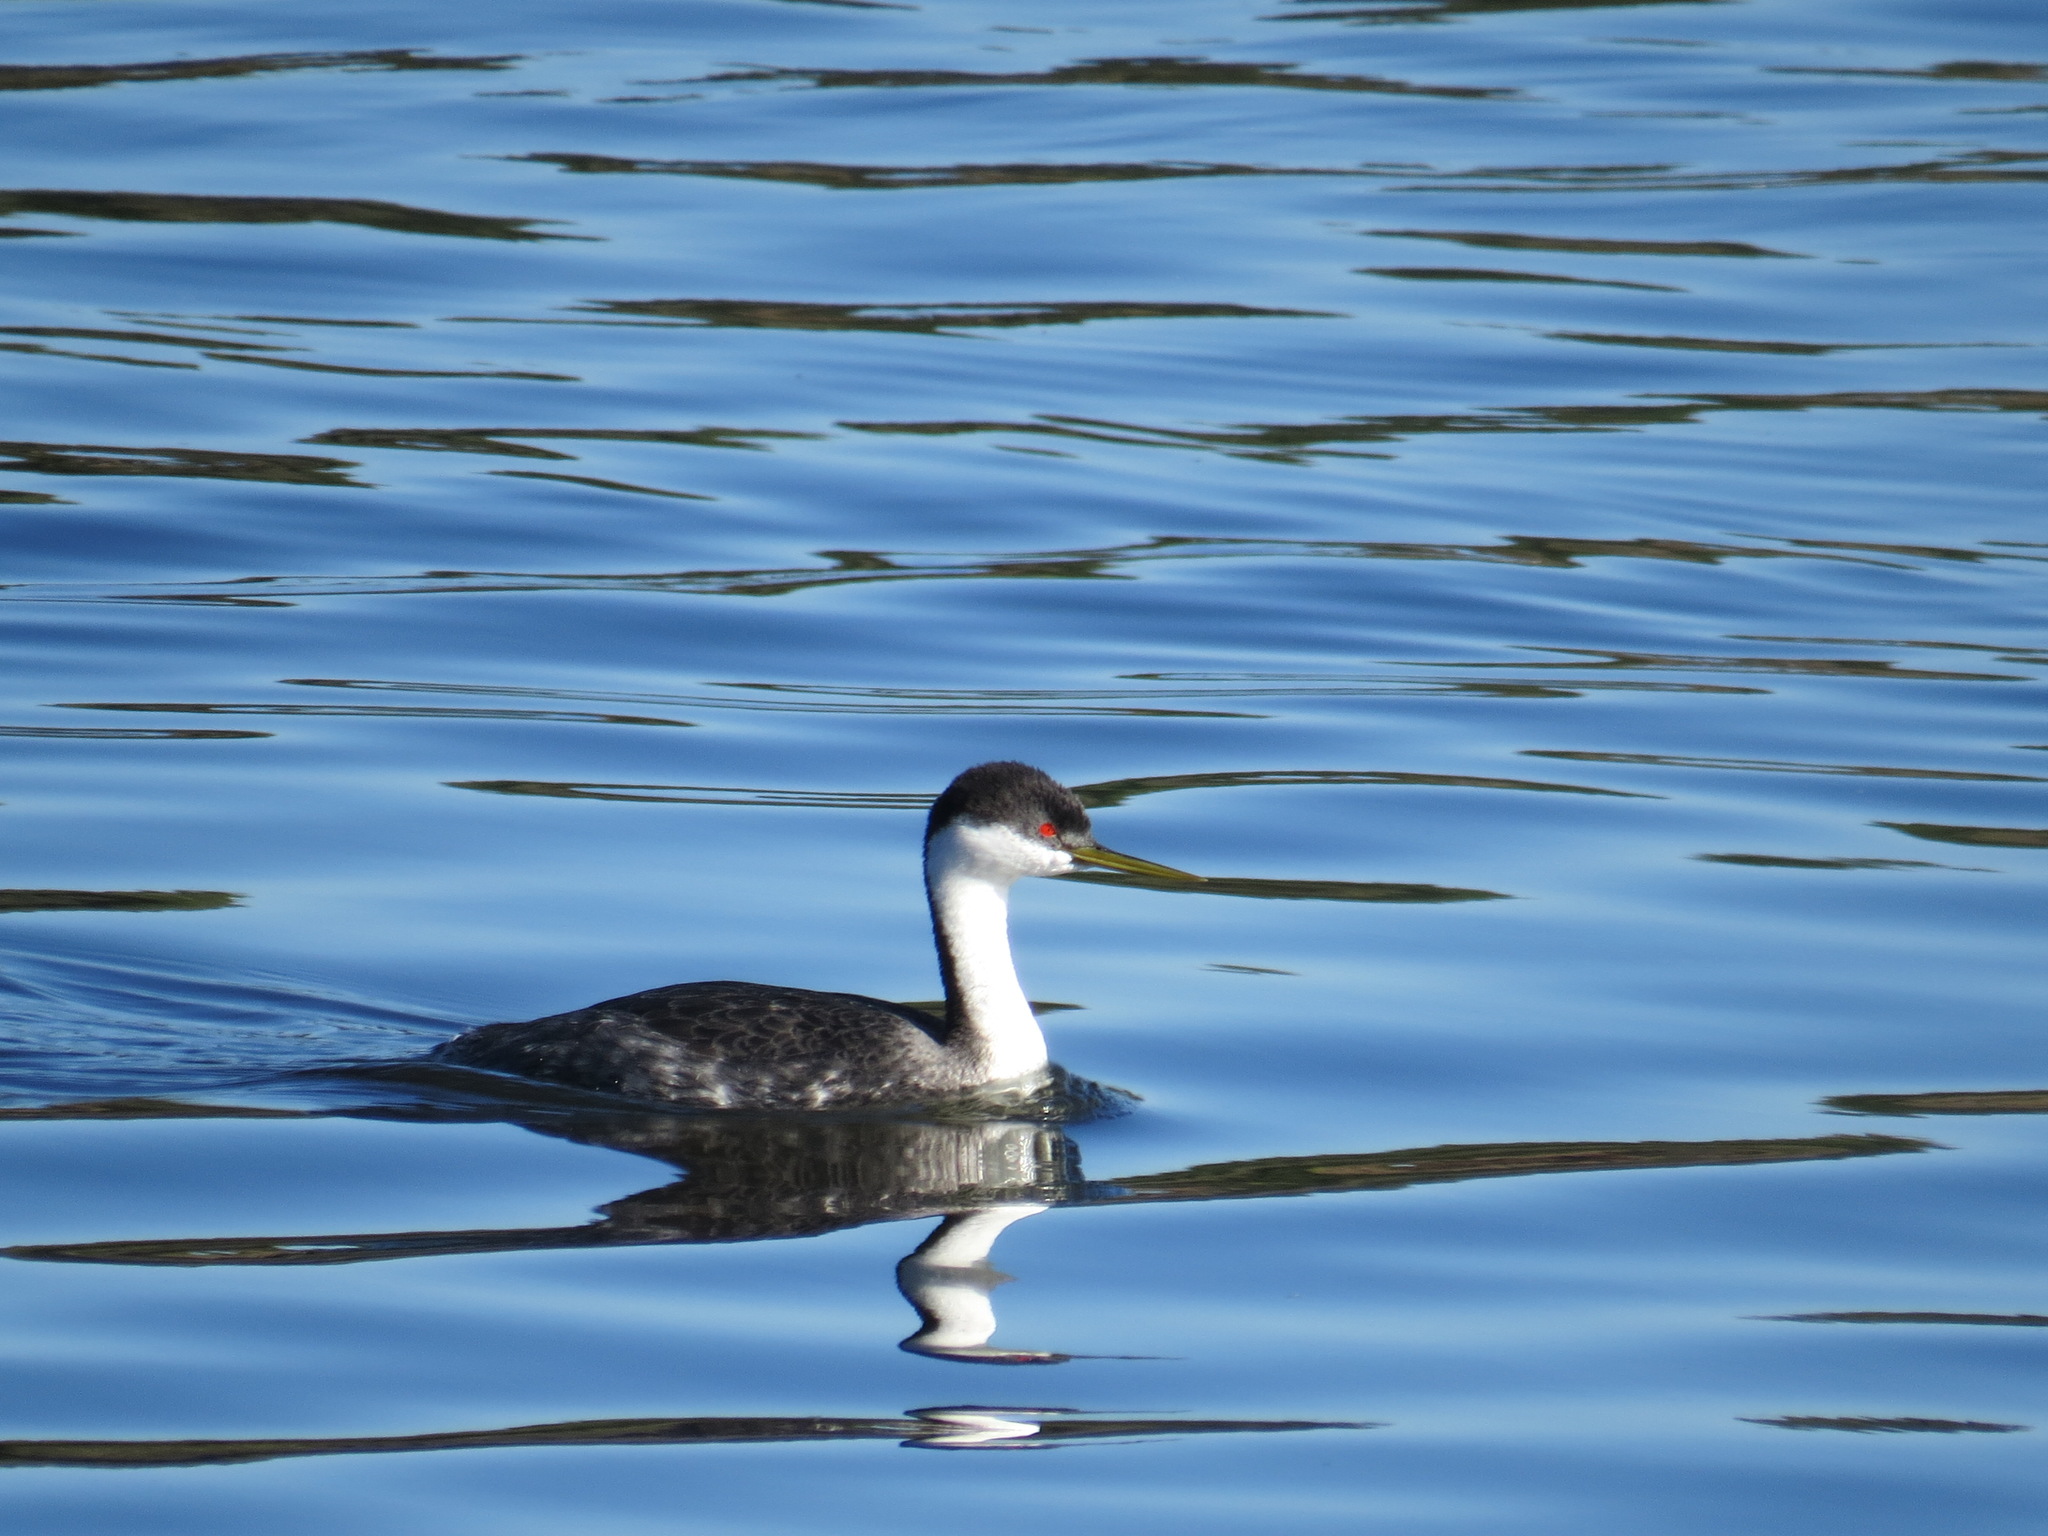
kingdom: Animalia
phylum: Chordata
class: Aves
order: Podicipediformes
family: Podicipedidae
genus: Aechmophorus
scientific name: Aechmophorus occidentalis
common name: Western grebe
